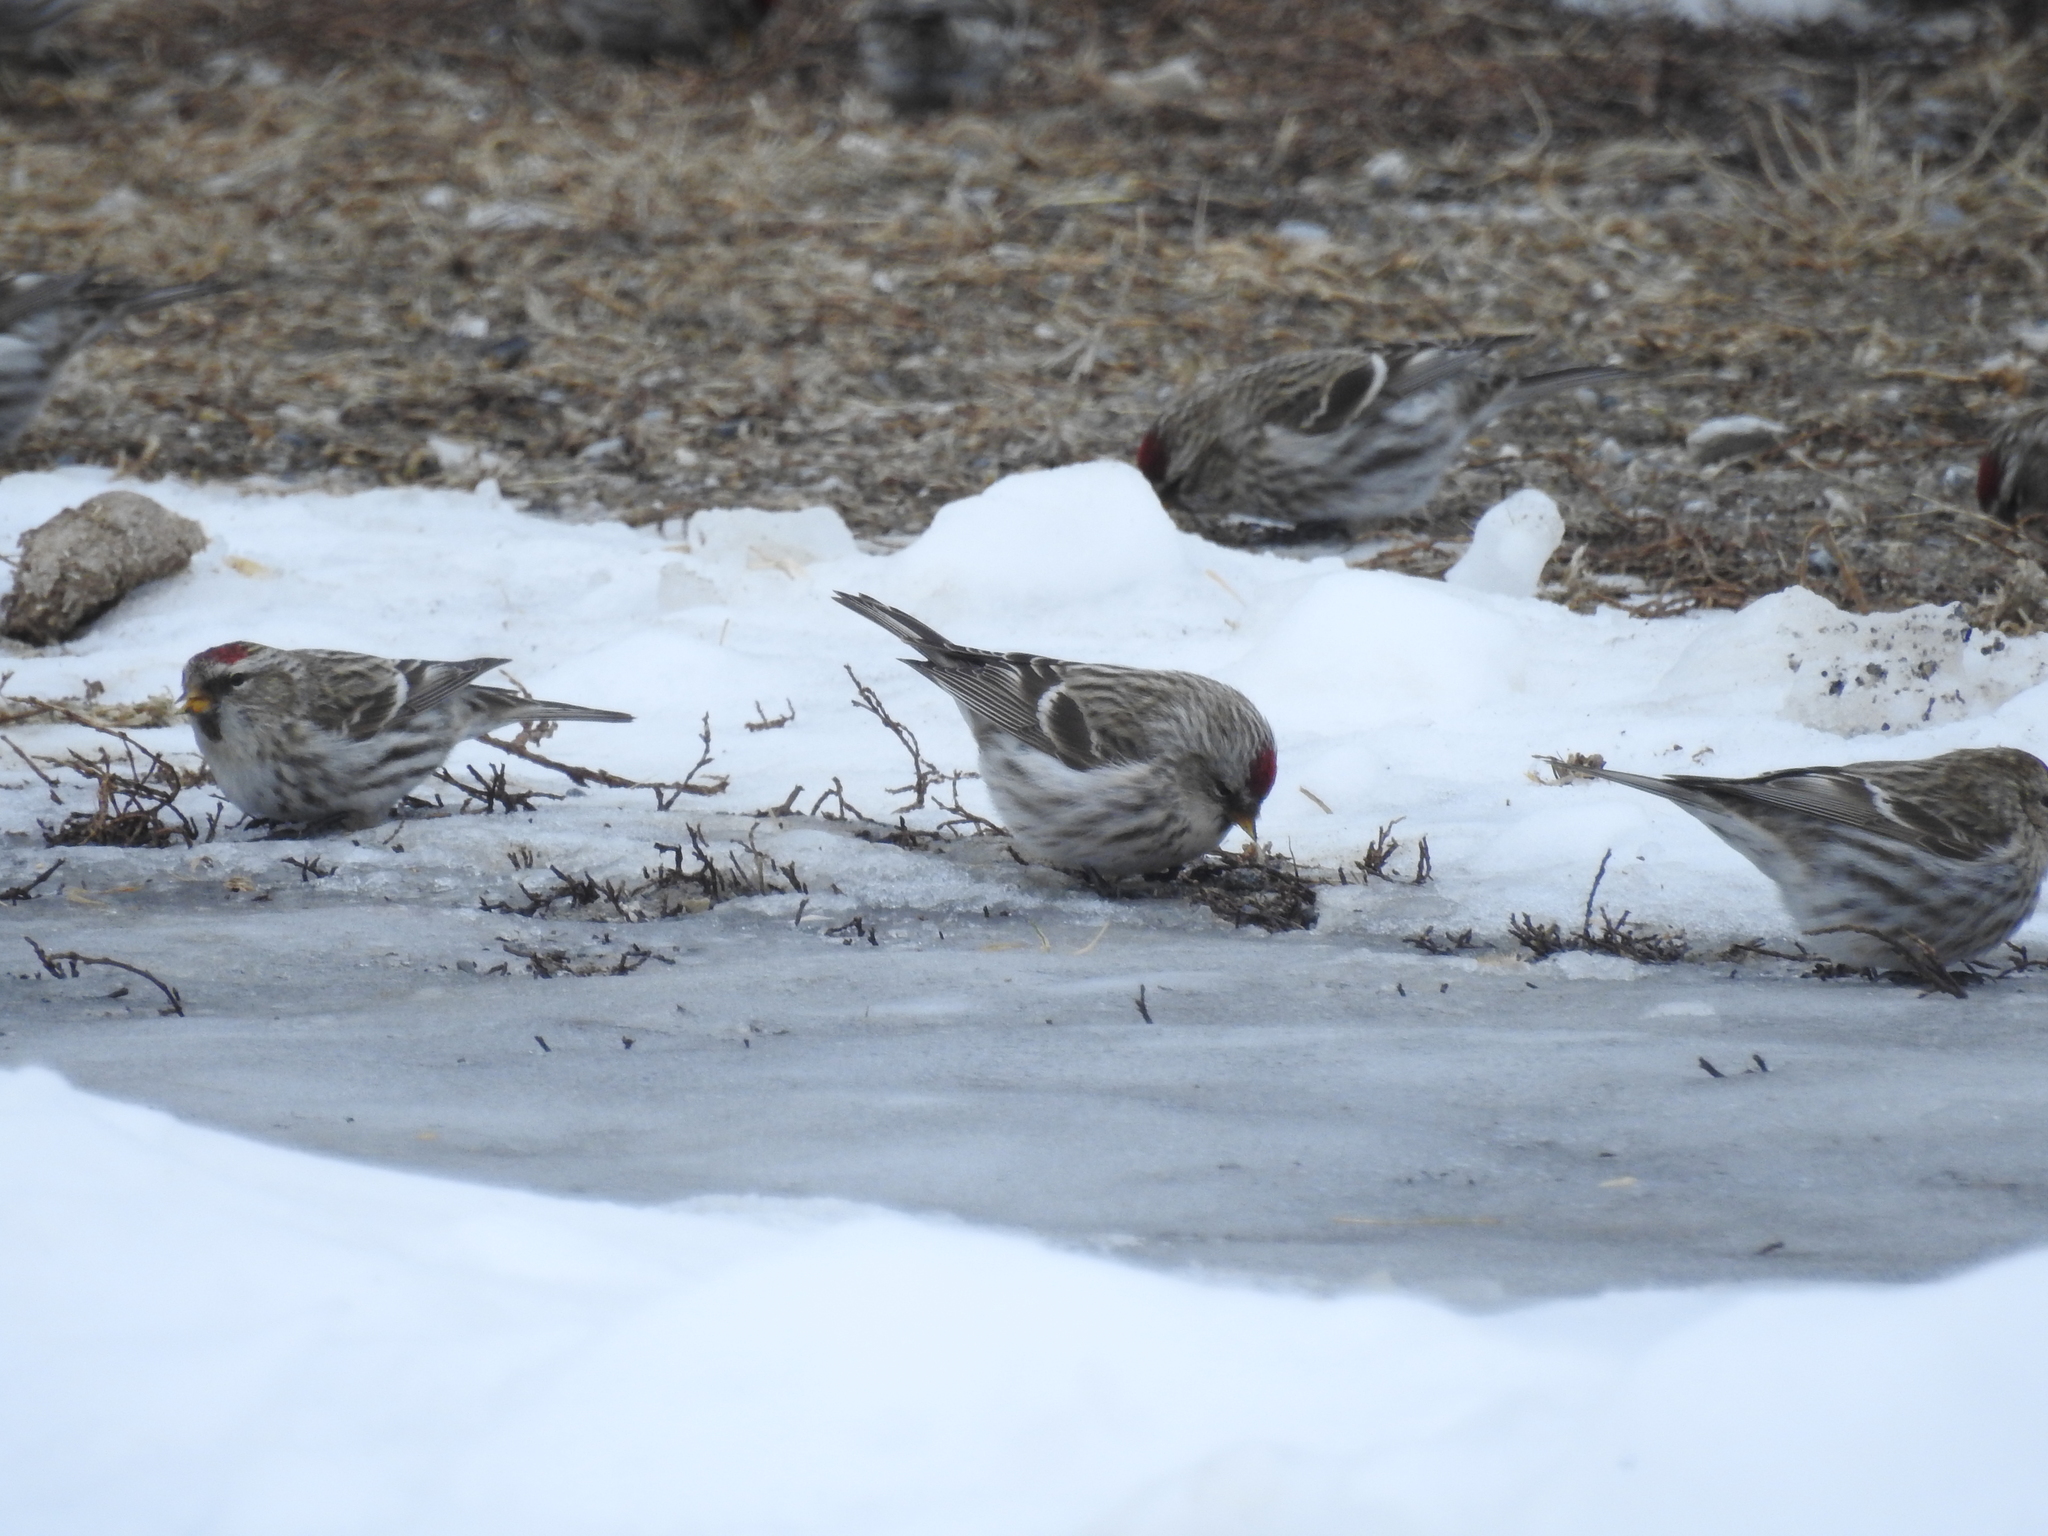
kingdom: Animalia
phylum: Chordata
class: Aves
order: Passeriformes
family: Fringillidae
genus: Acanthis
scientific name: Acanthis hornemanni
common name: Arctic redpoll
